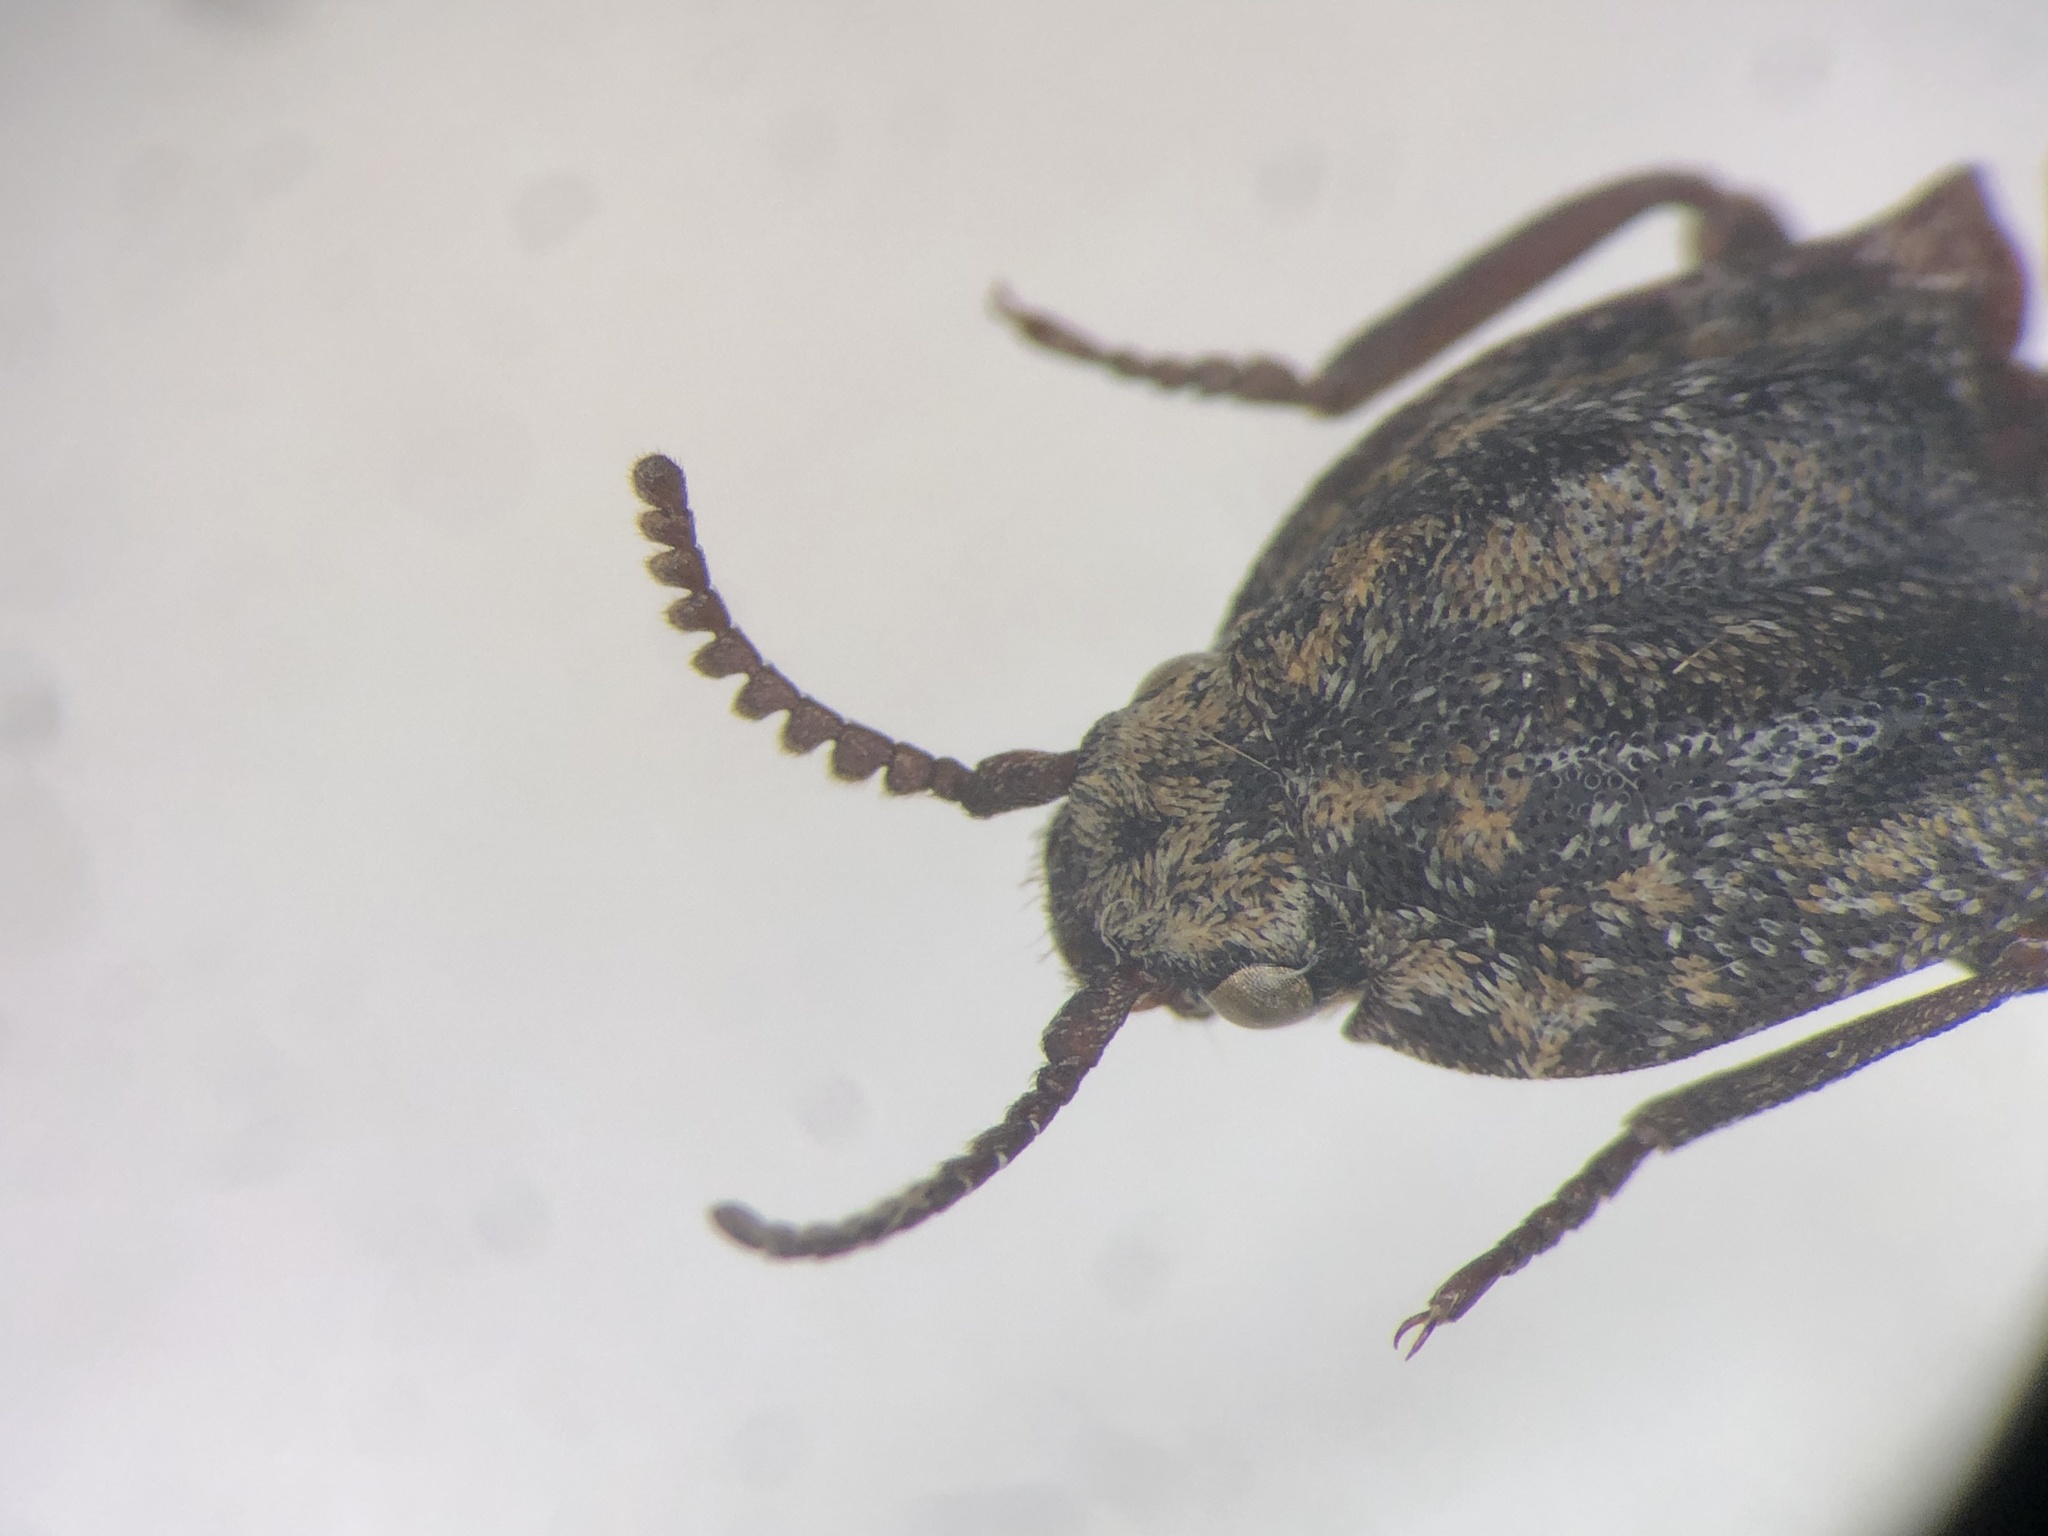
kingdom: Animalia
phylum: Arthropoda
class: Insecta
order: Coleoptera
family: Elateridae
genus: Danosoma
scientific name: Danosoma obtectum
